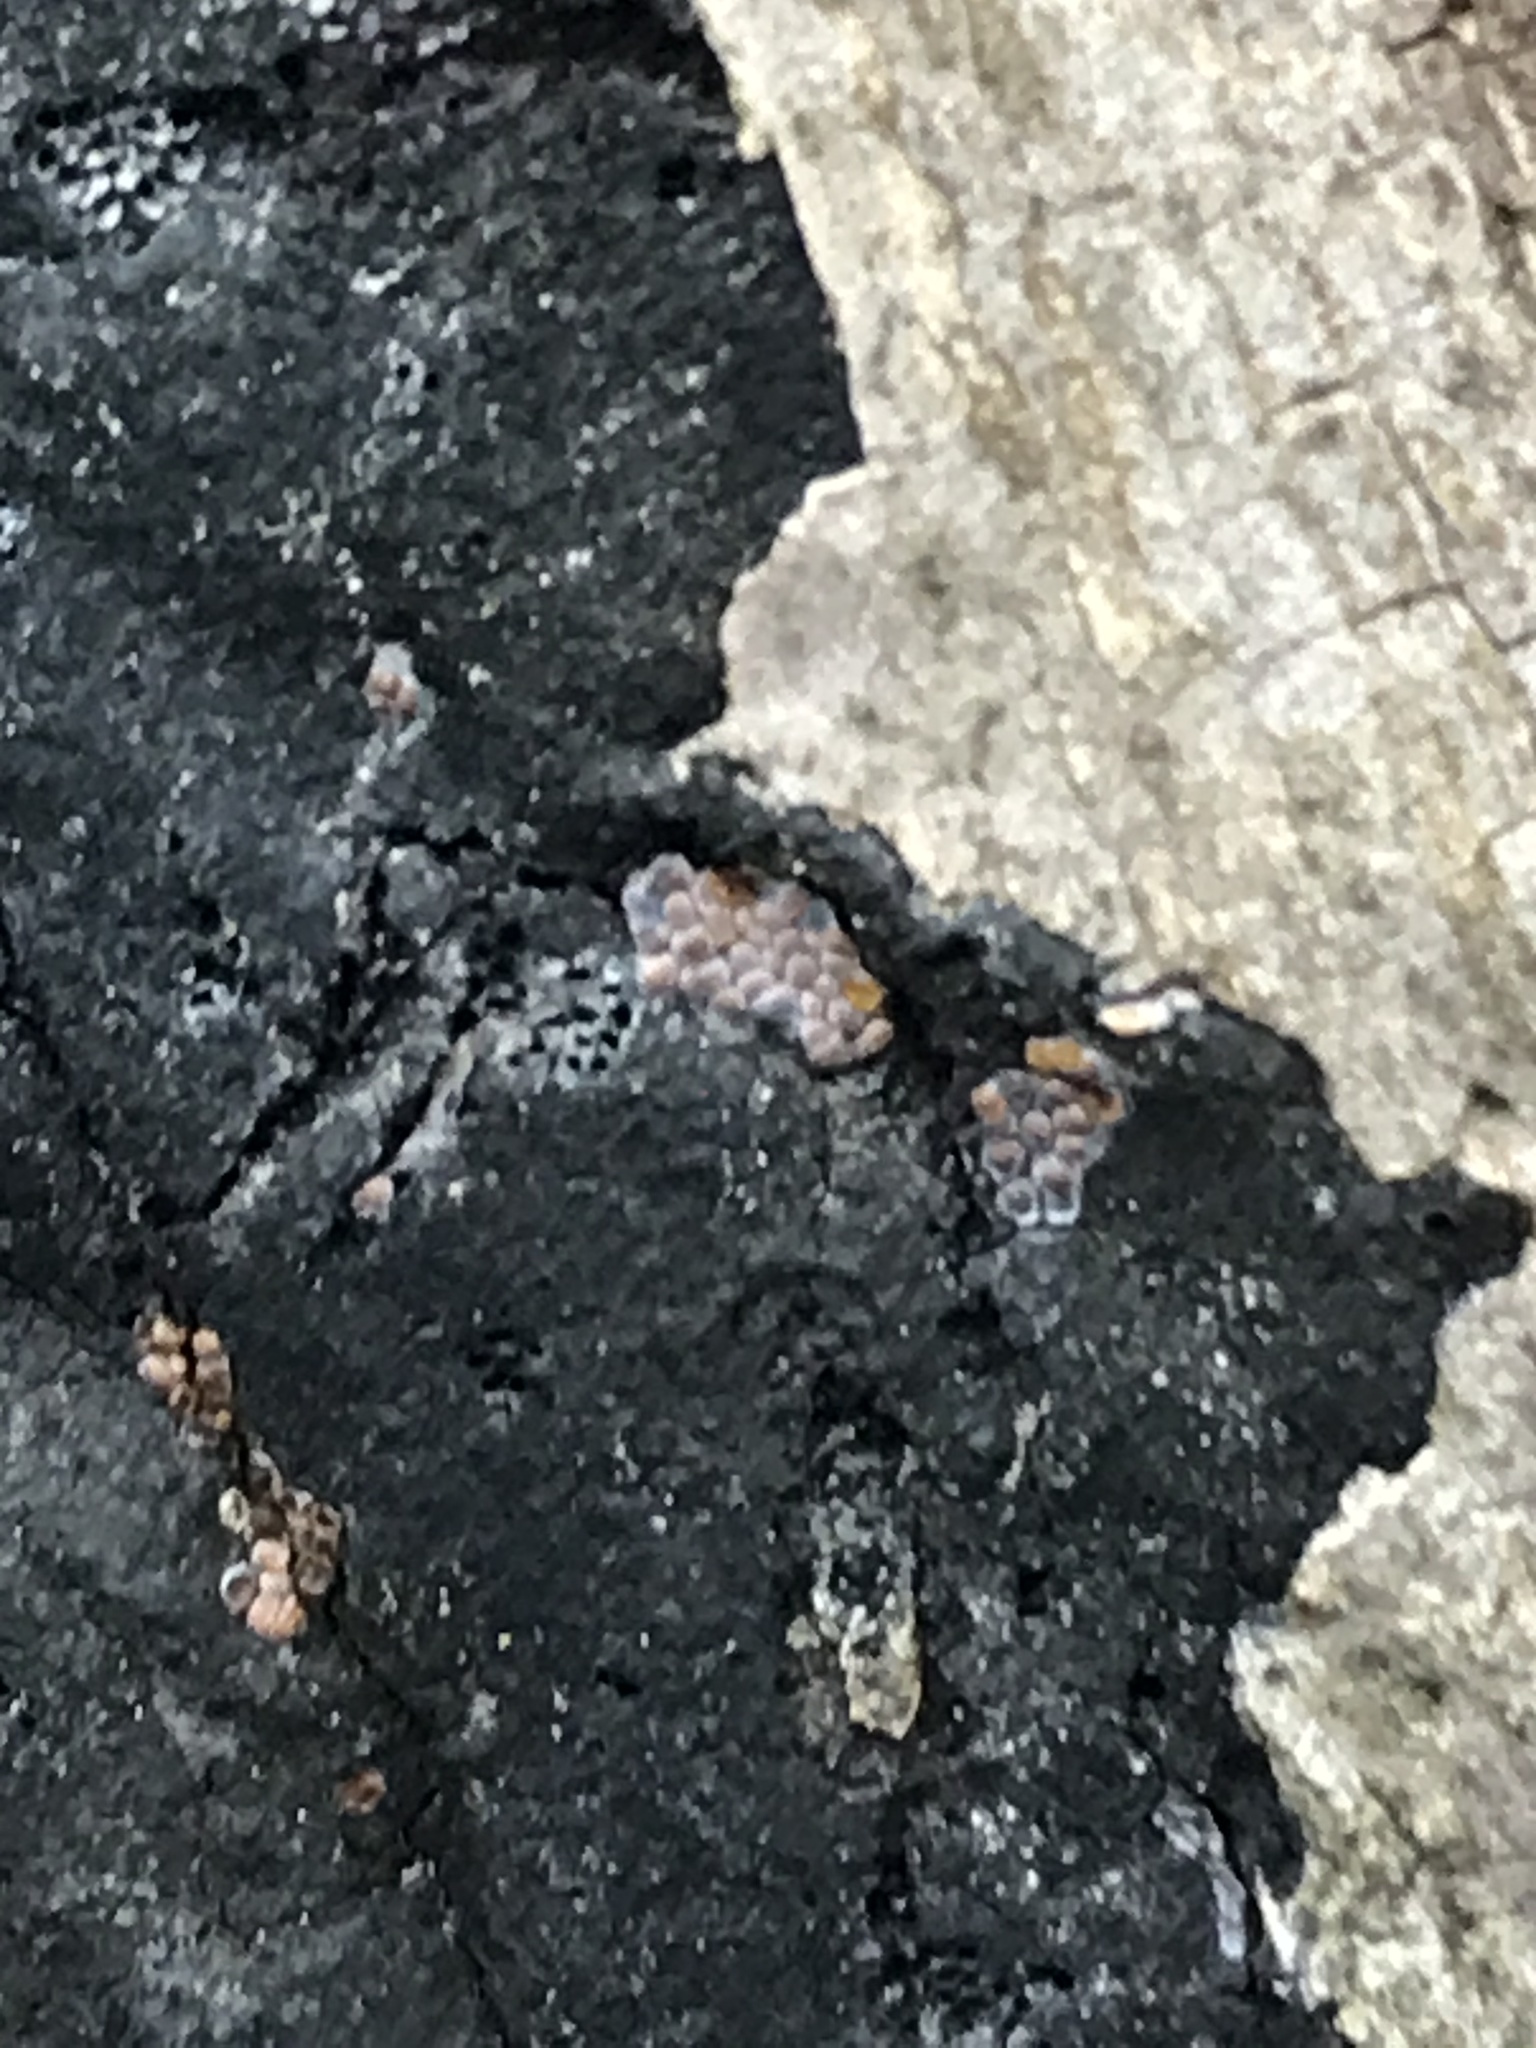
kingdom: Protozoa
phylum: Mycetozoa
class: Myxomycetes
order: Trichiales
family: Trichiaceae
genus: Perichaena
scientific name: Perichaena depressa
